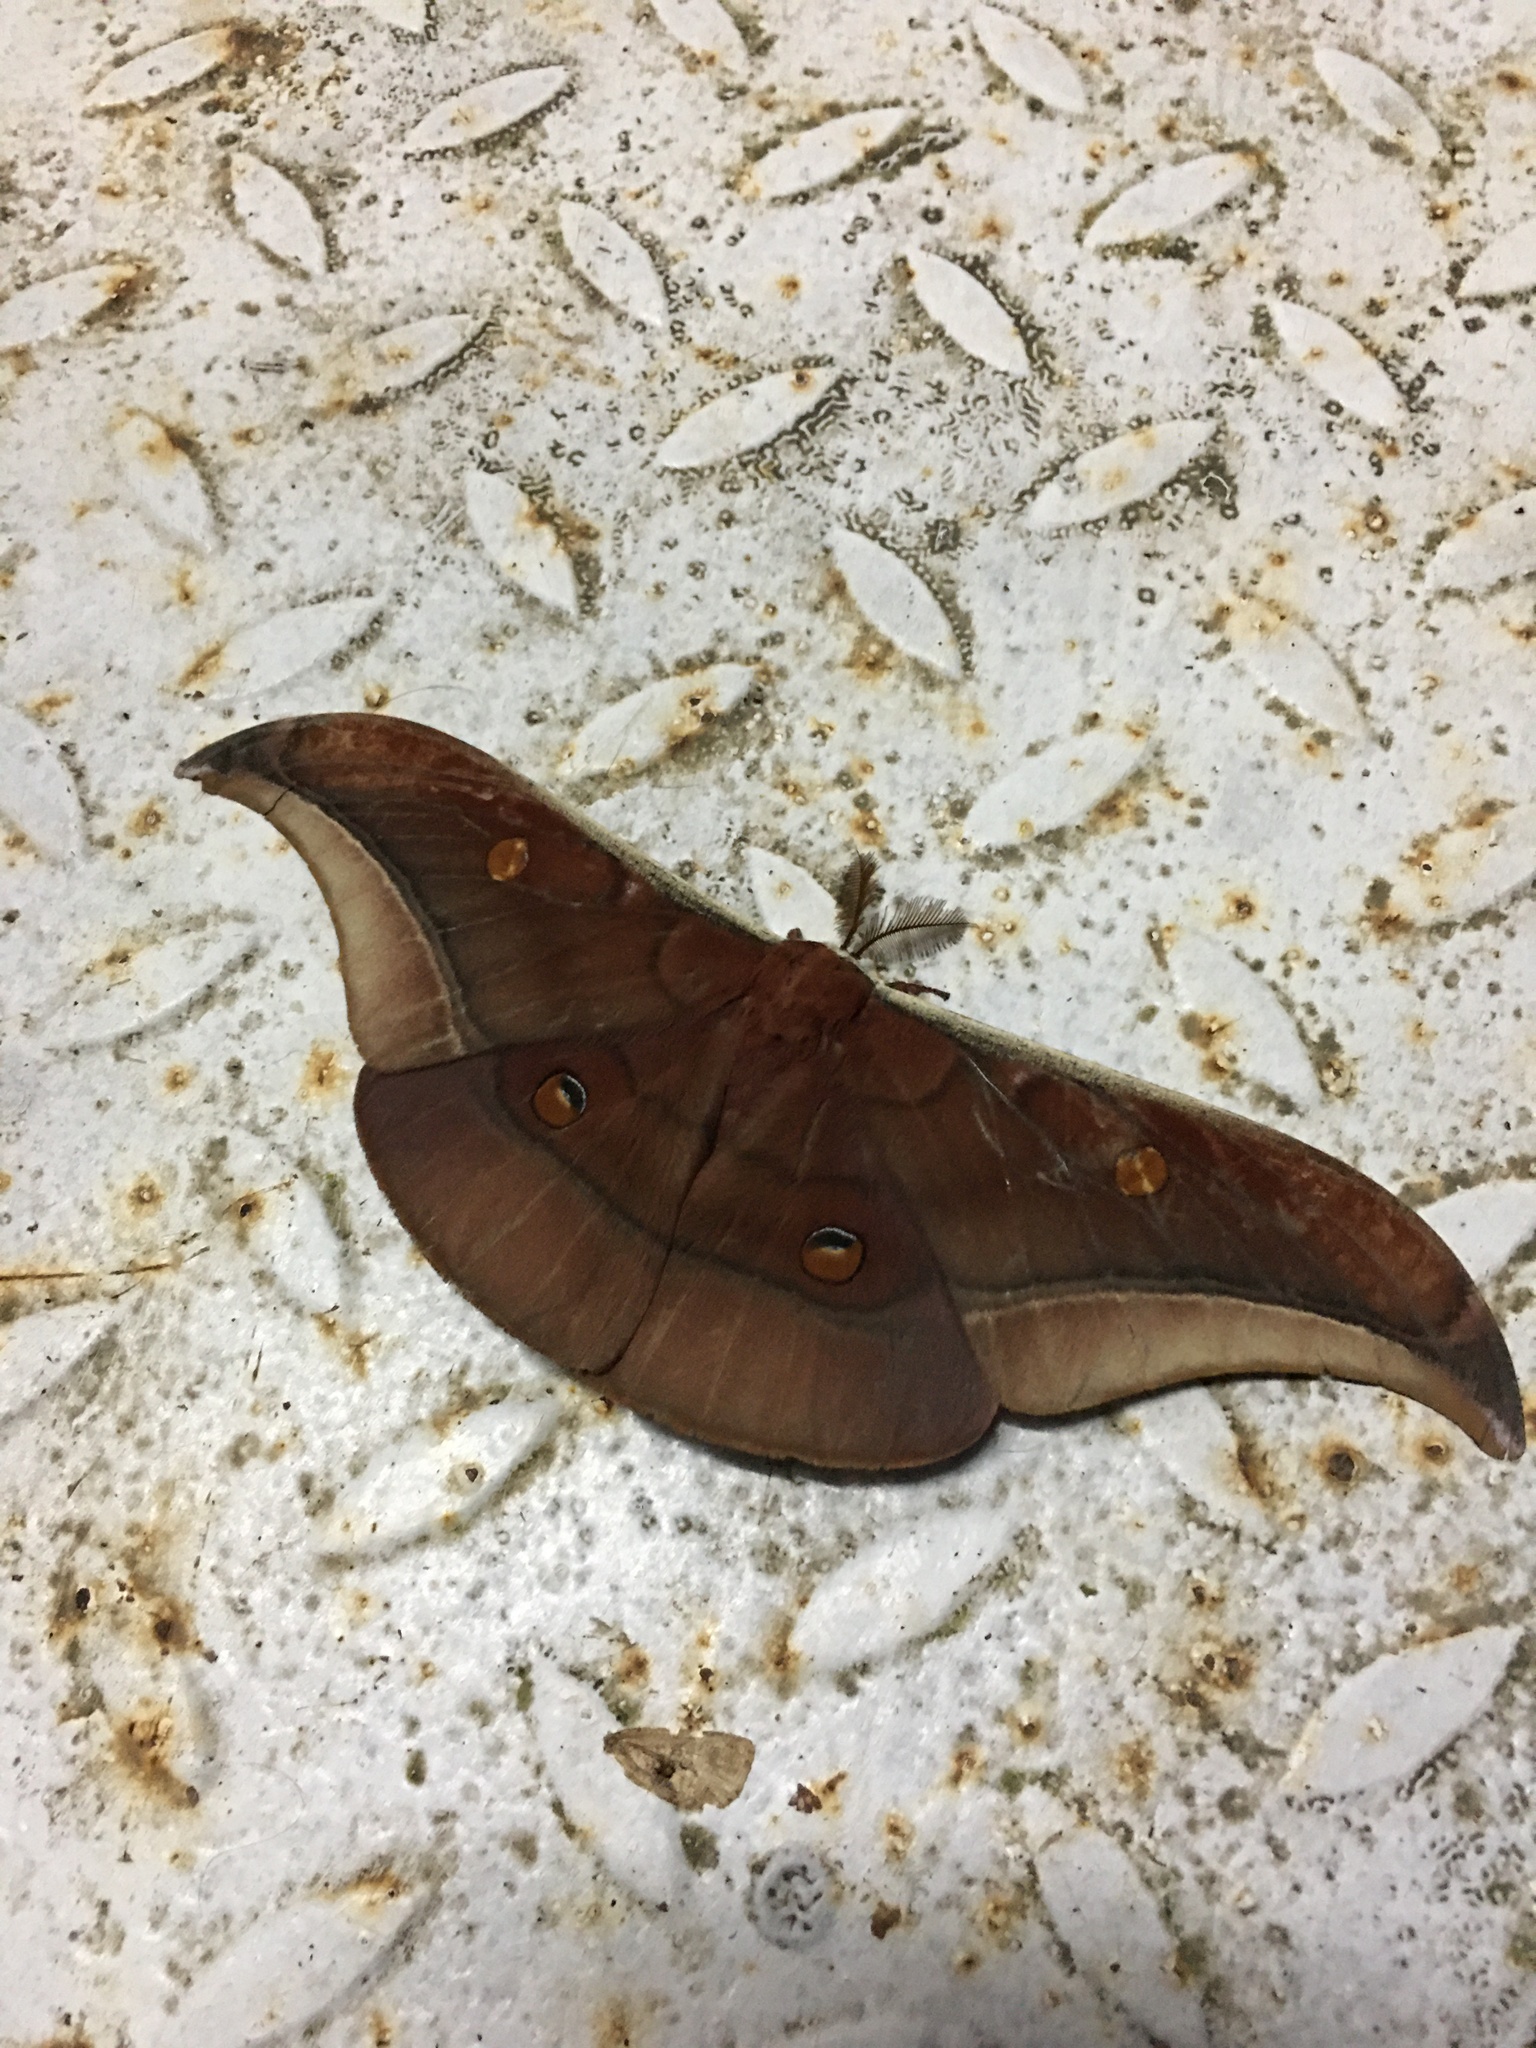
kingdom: Animalia
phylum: Arthropoda
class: Insecta
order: Lepidoptera
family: Saturniidae
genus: Antheraea
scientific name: Antheraea assamensis
